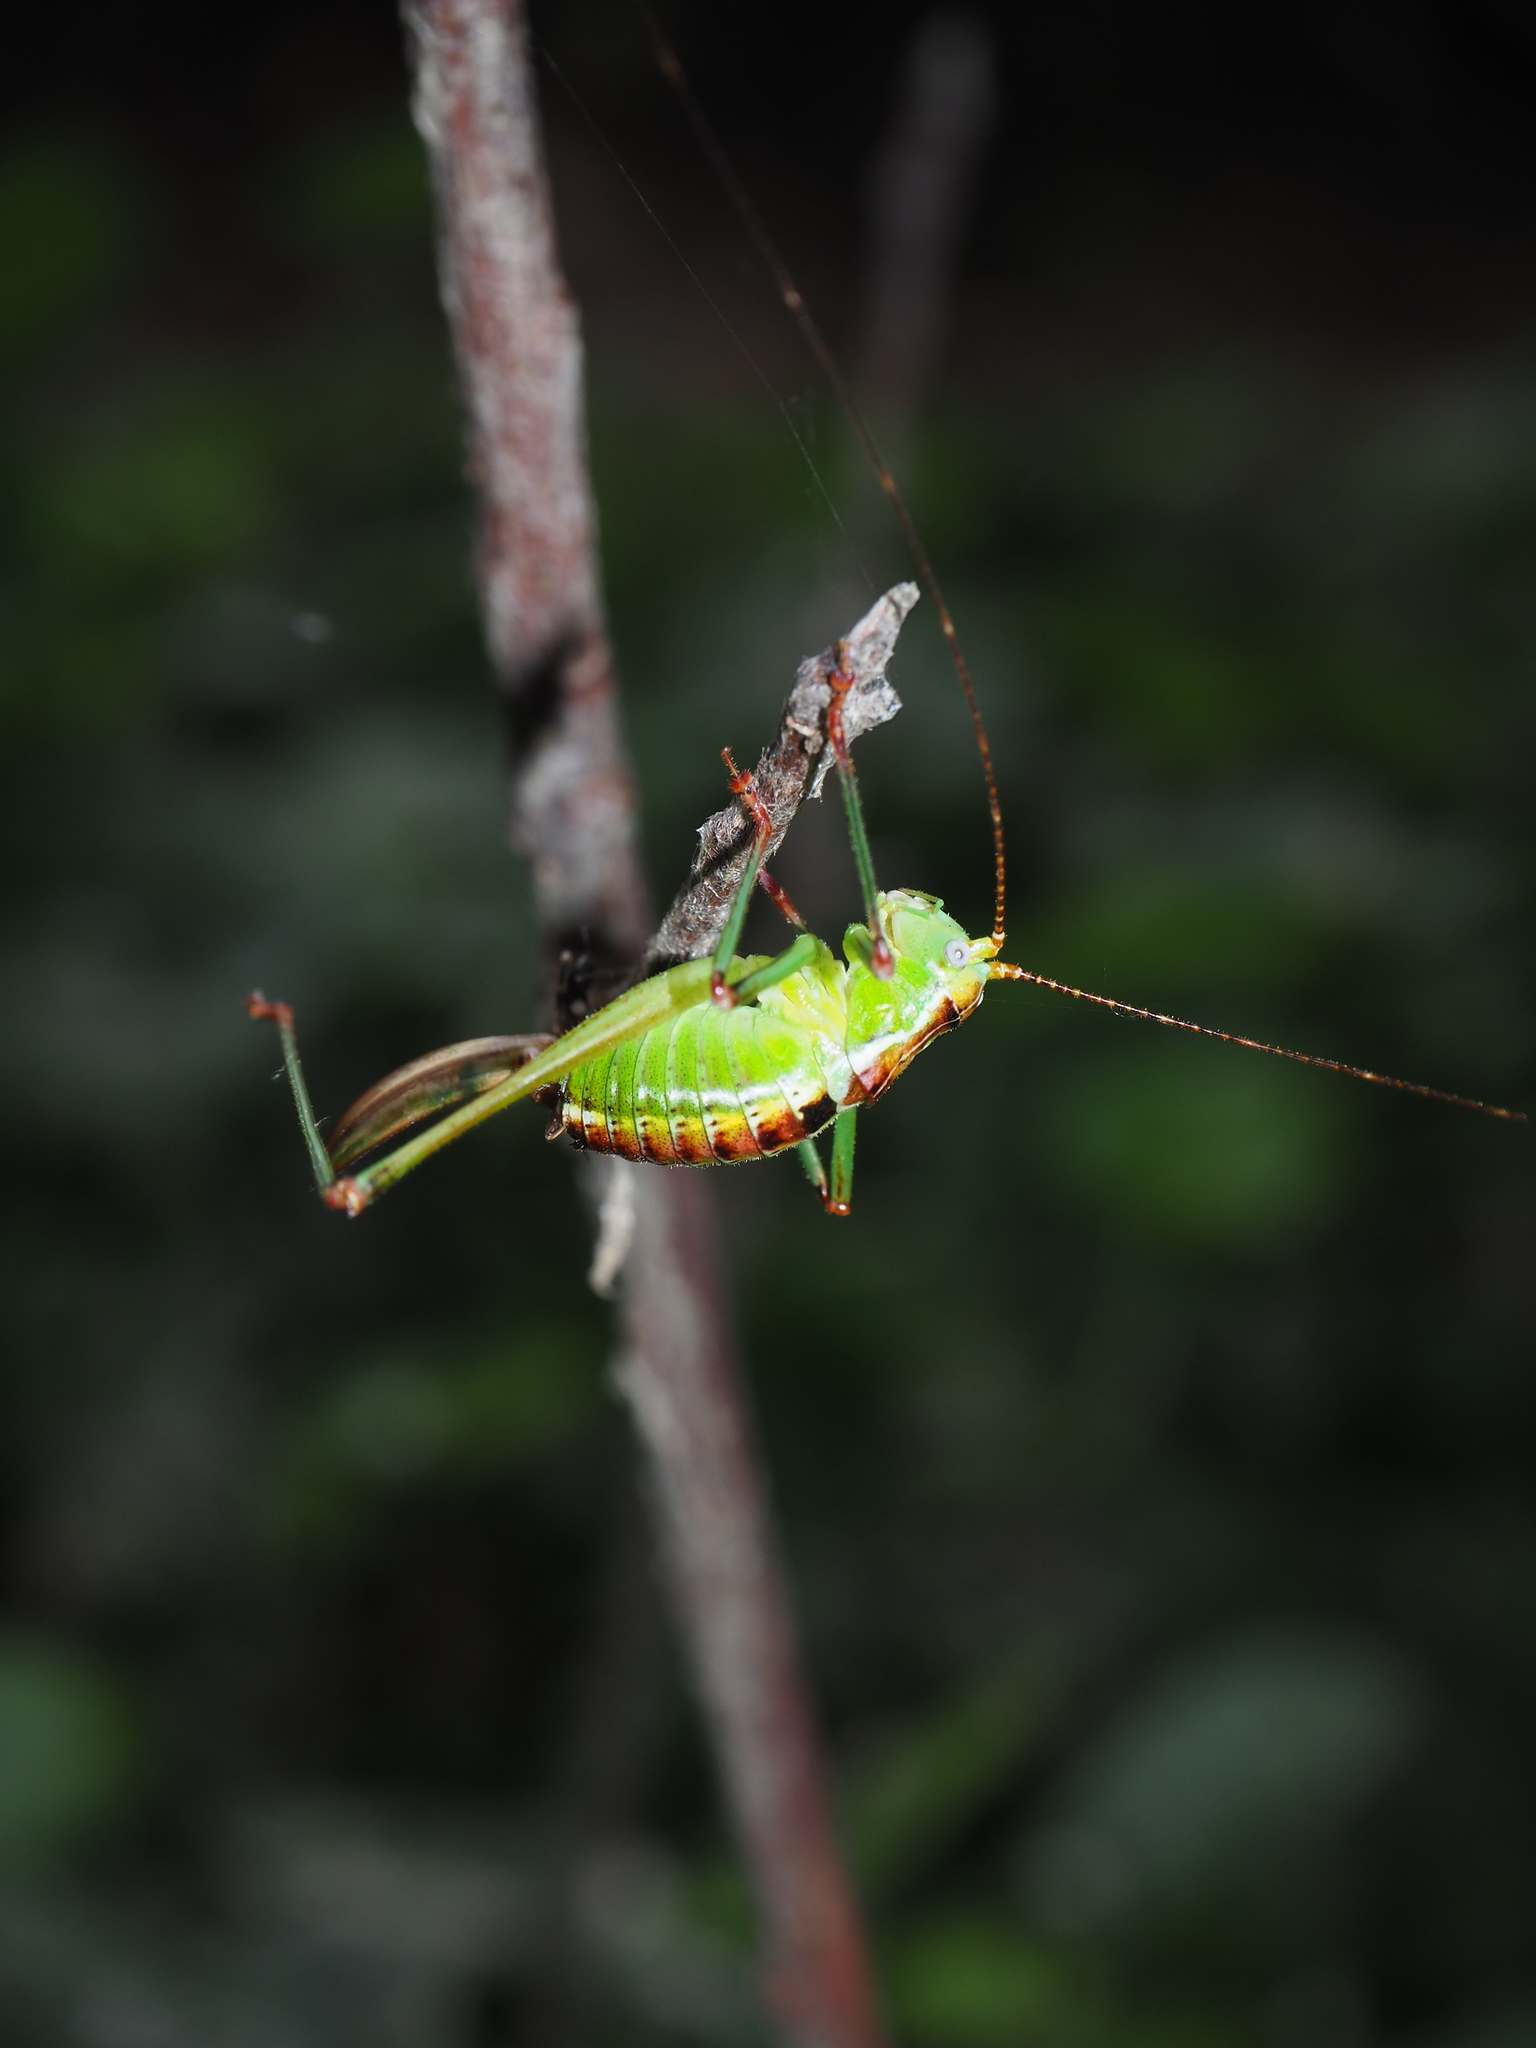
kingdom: Animalia
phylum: Arthropoda
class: Insecta
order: Orthoptera
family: Tettigoniidae
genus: Andreiniimon
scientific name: Andreiniimon nuptialis
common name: Splendid bush-cricket
